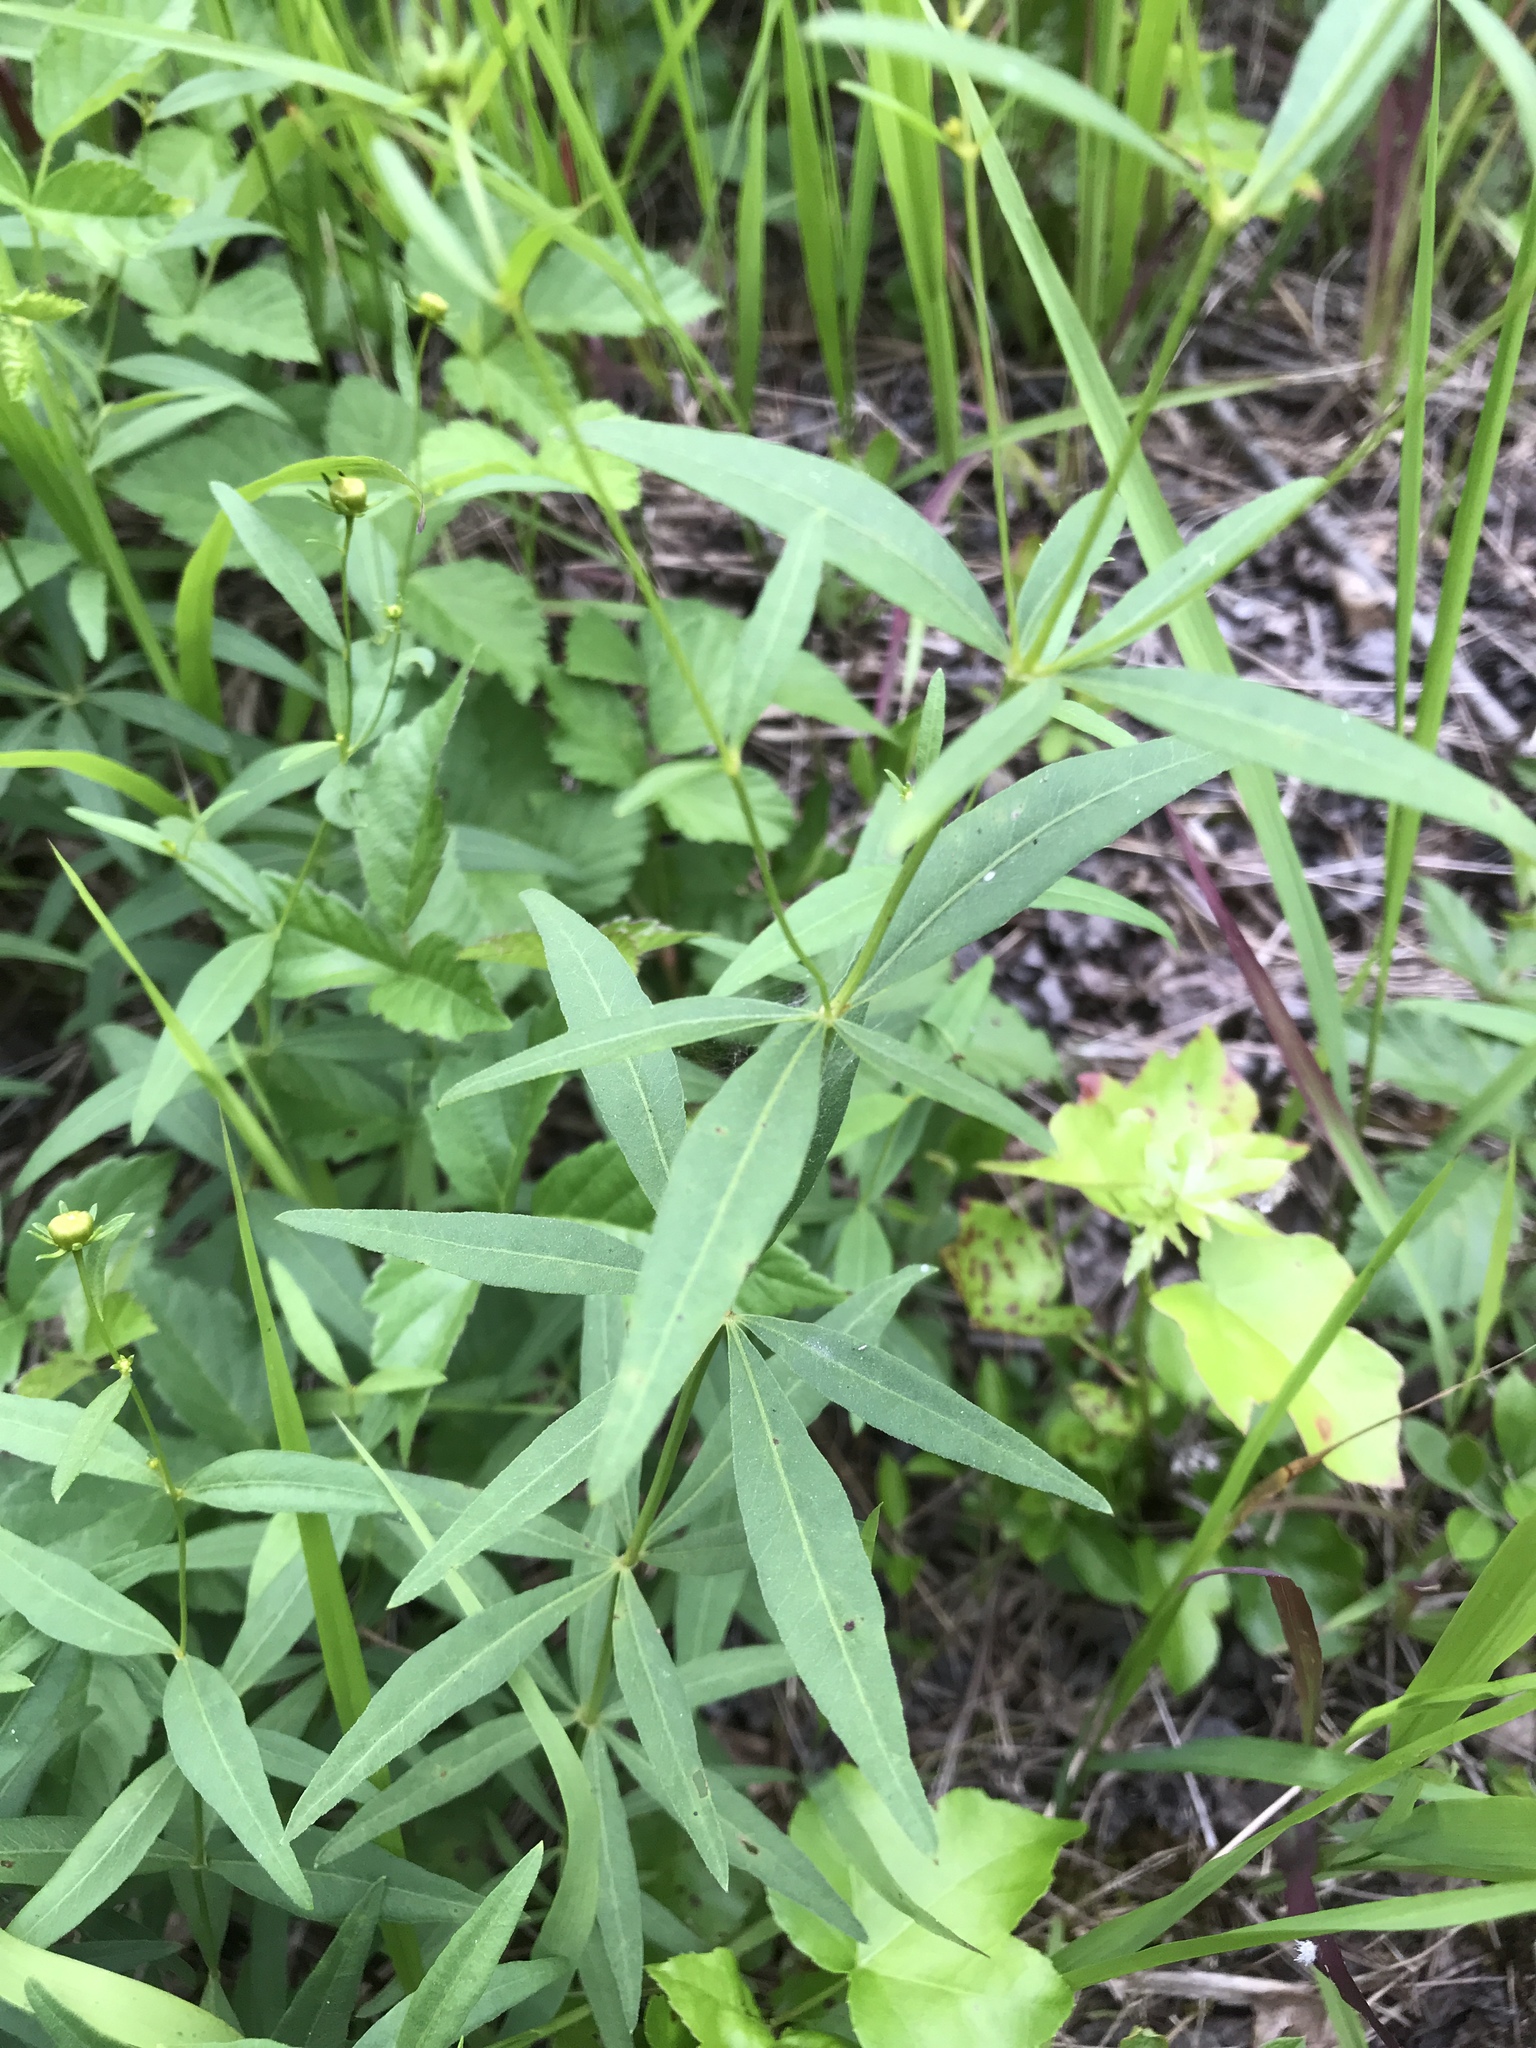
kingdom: Plantae
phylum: Tracheophyta
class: Magnoliopsida
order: Asterales
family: Asteraceae
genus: Coreopsis
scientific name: Coreopsis major
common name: Forest tickseed
